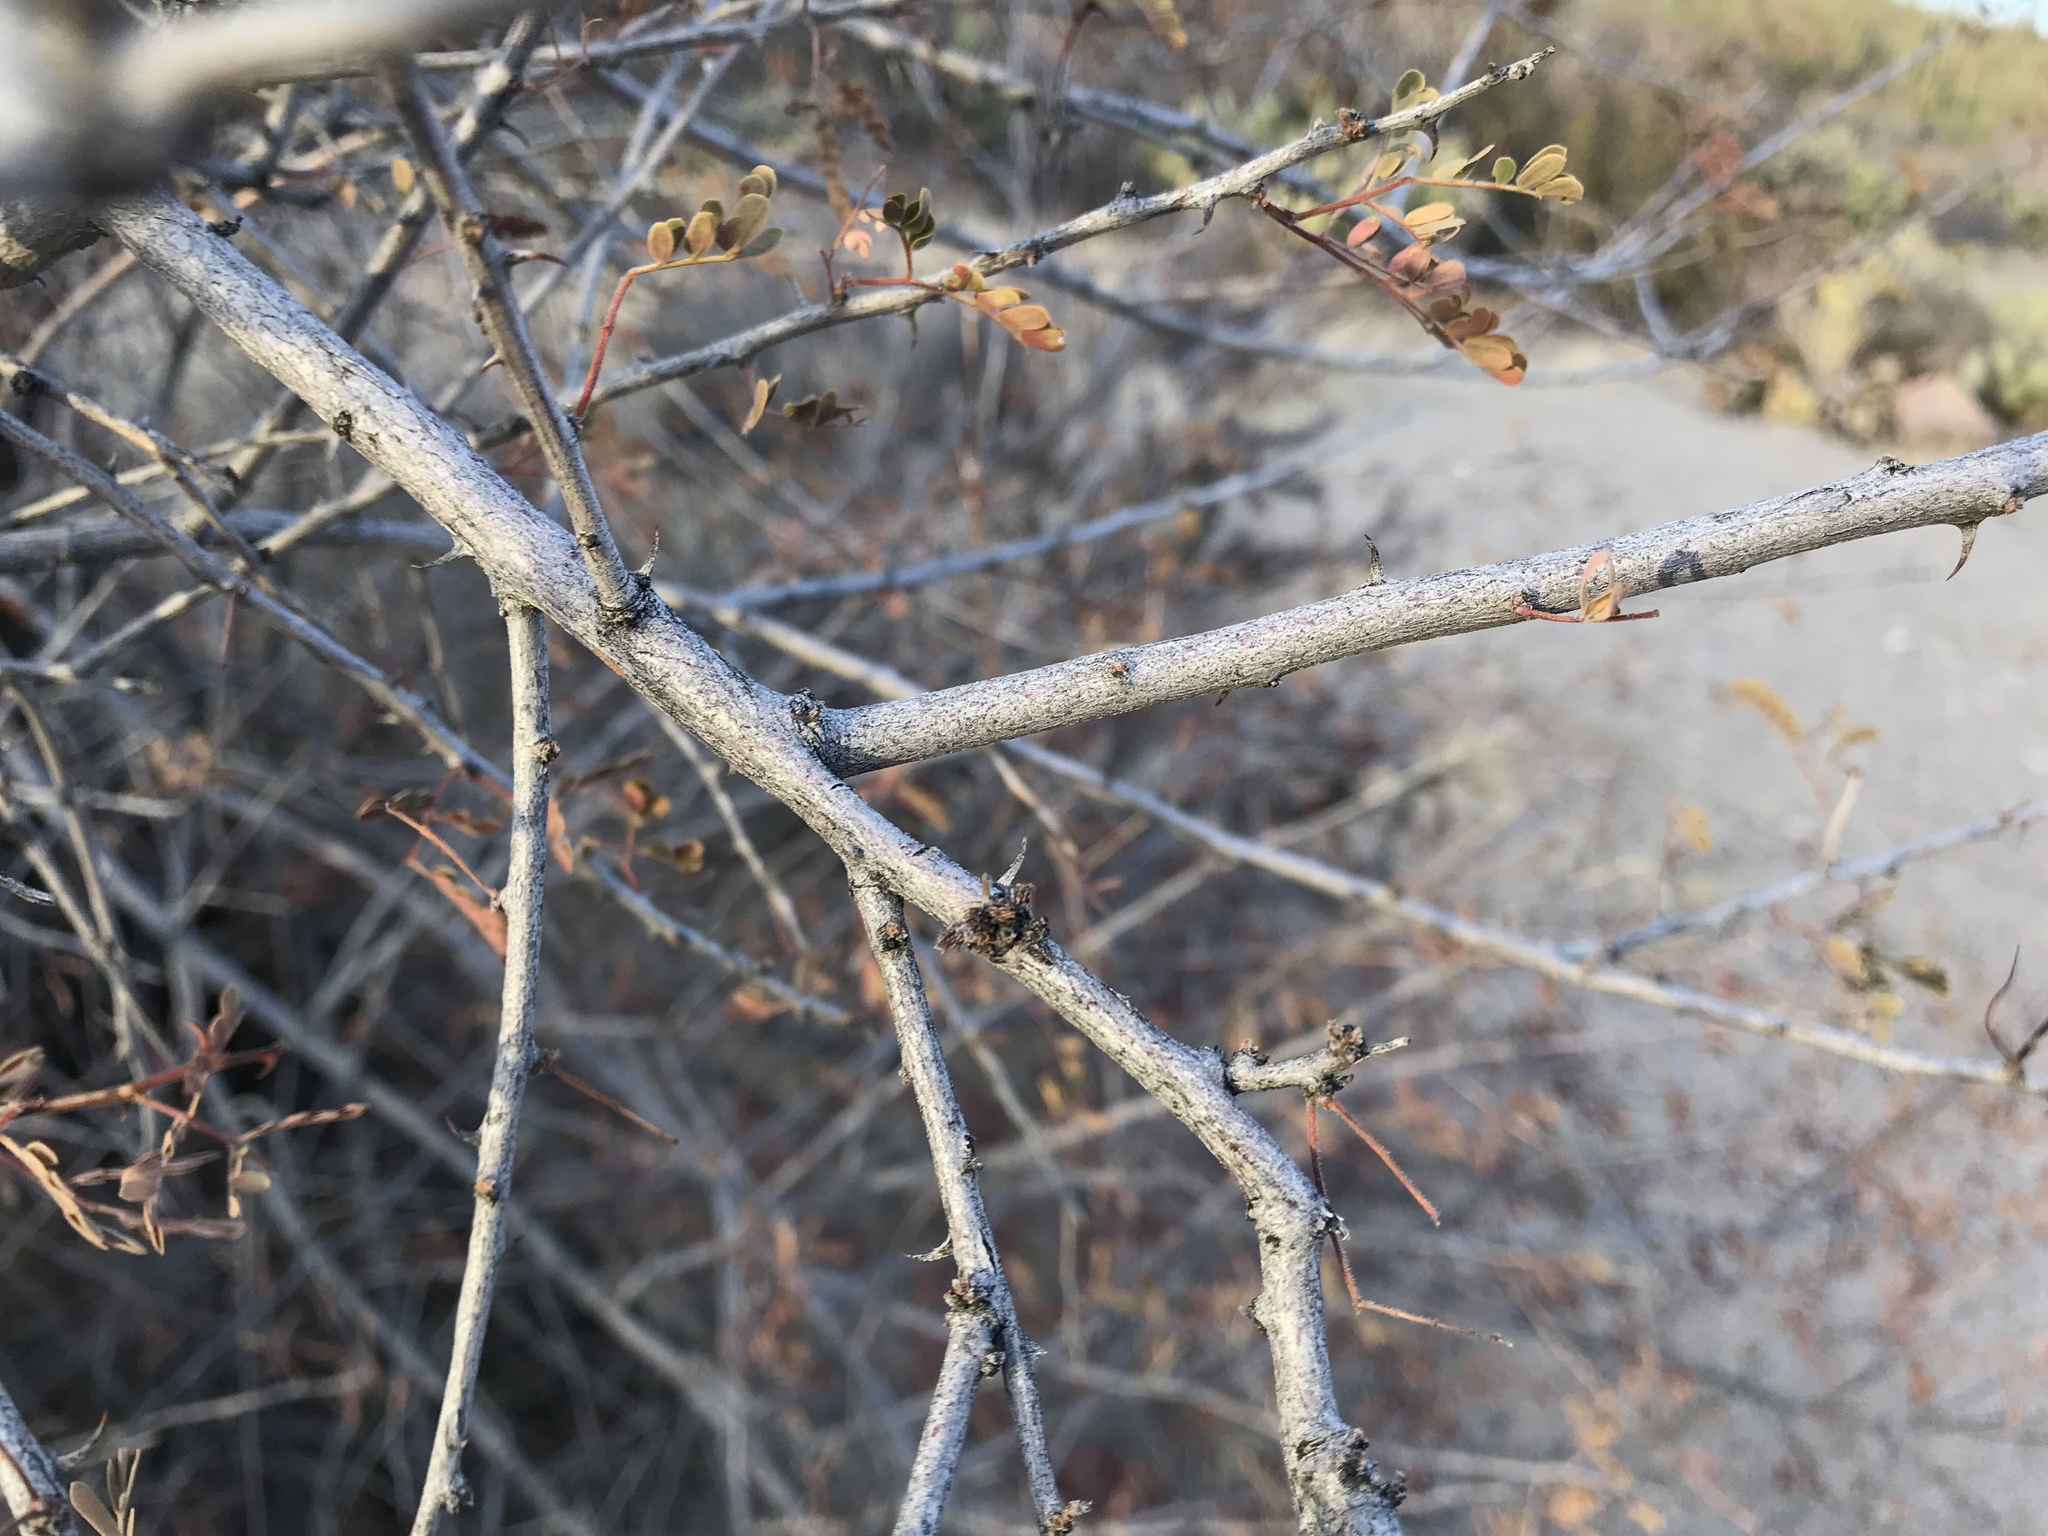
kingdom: Plantae
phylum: Tracheophyta
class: Magnoliopsida
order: Fabales
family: Fabaceae
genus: Senegalia
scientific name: Senegalia greggii
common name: Texas-mimosa
